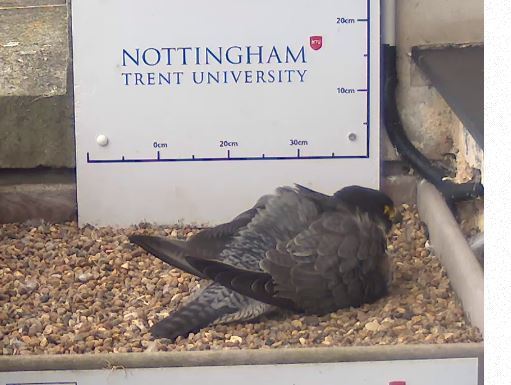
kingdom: Animalia
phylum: Chordata
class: Aves
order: Falconiformes
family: Falconidae
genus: Falco
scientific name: Falco peregrinus
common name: Peregrine falcon
